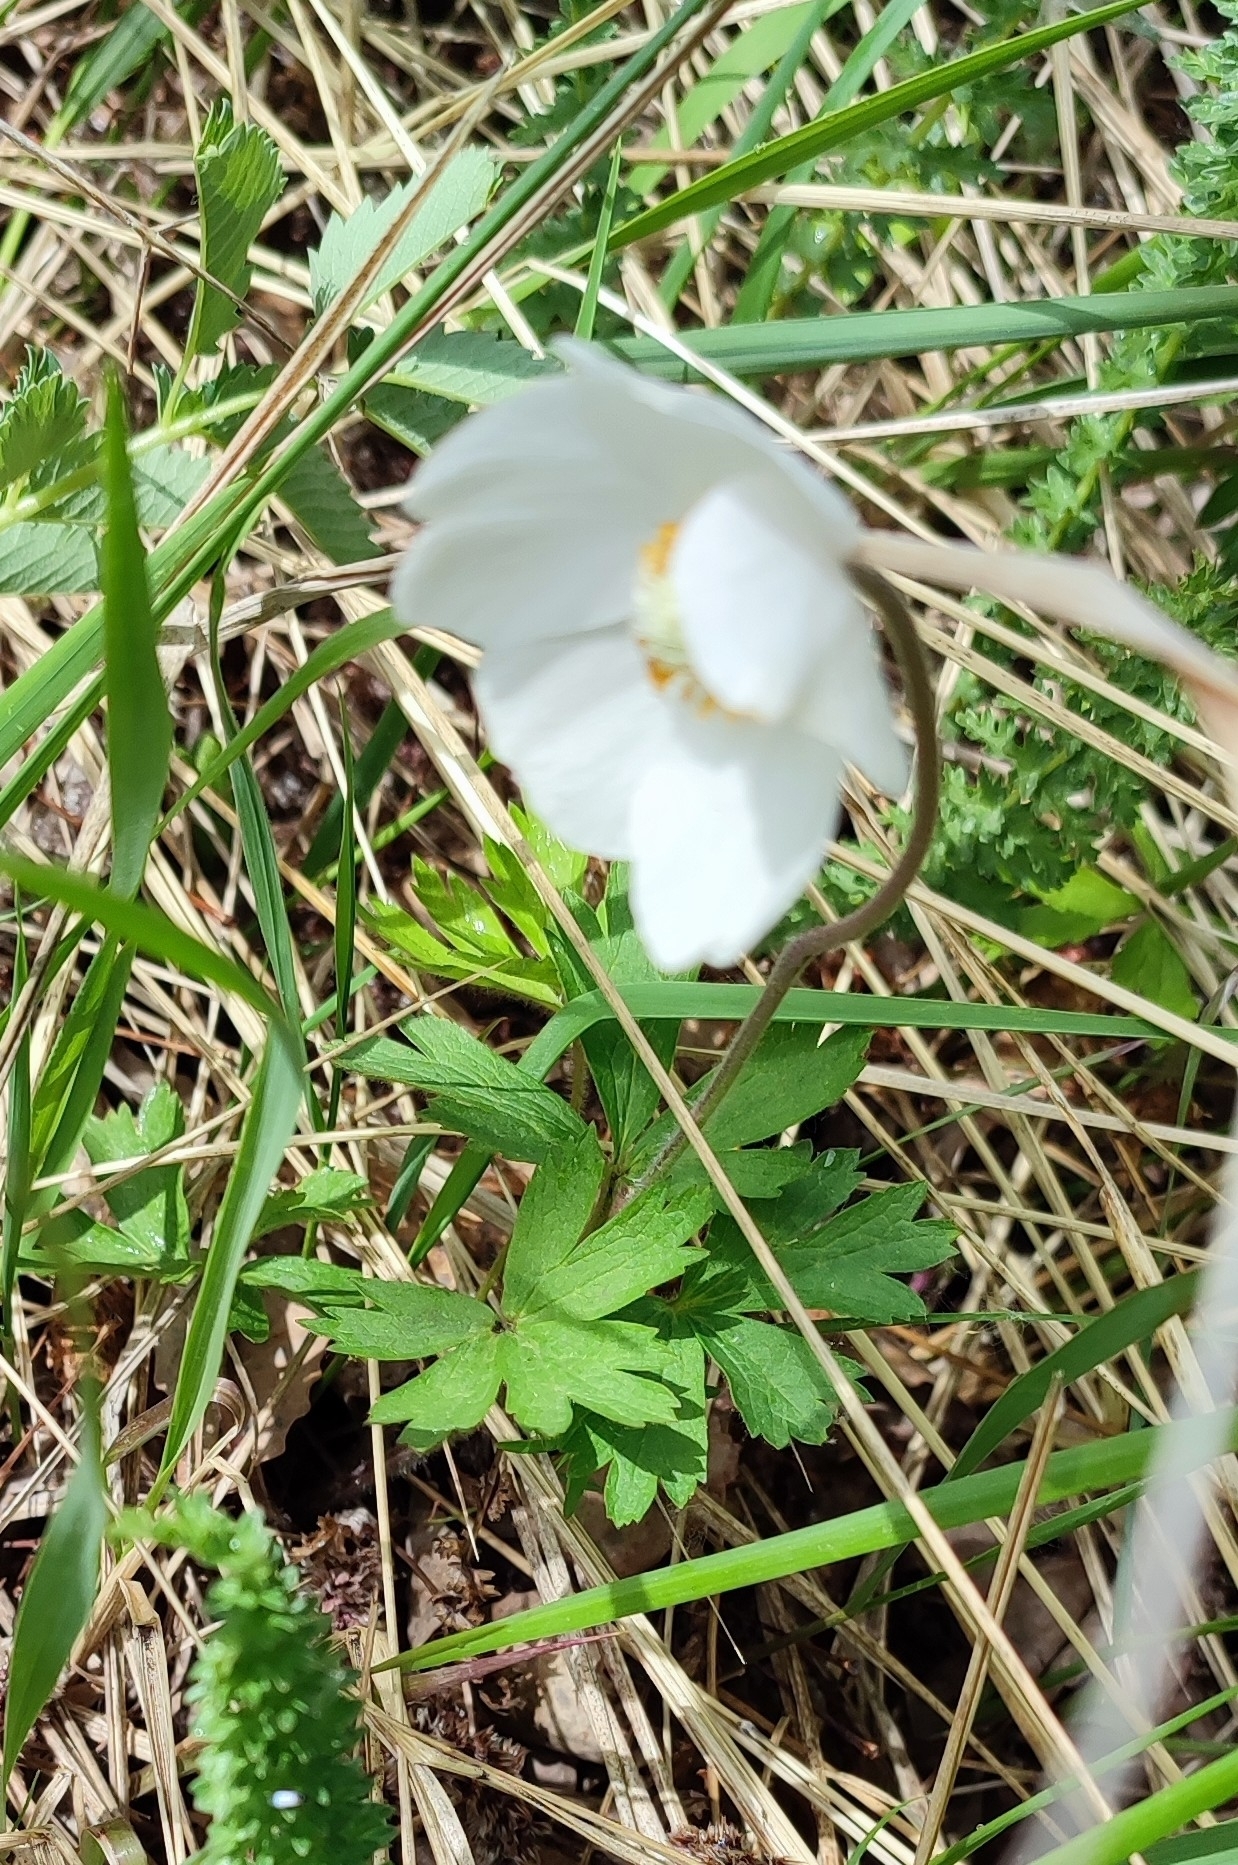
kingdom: Plantae
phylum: Tracheophyta
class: Magnoliopsida
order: Ranunculales
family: Ranunculaceae
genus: Anemone
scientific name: Anemone sylvestris
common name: Snowdrop anemone
